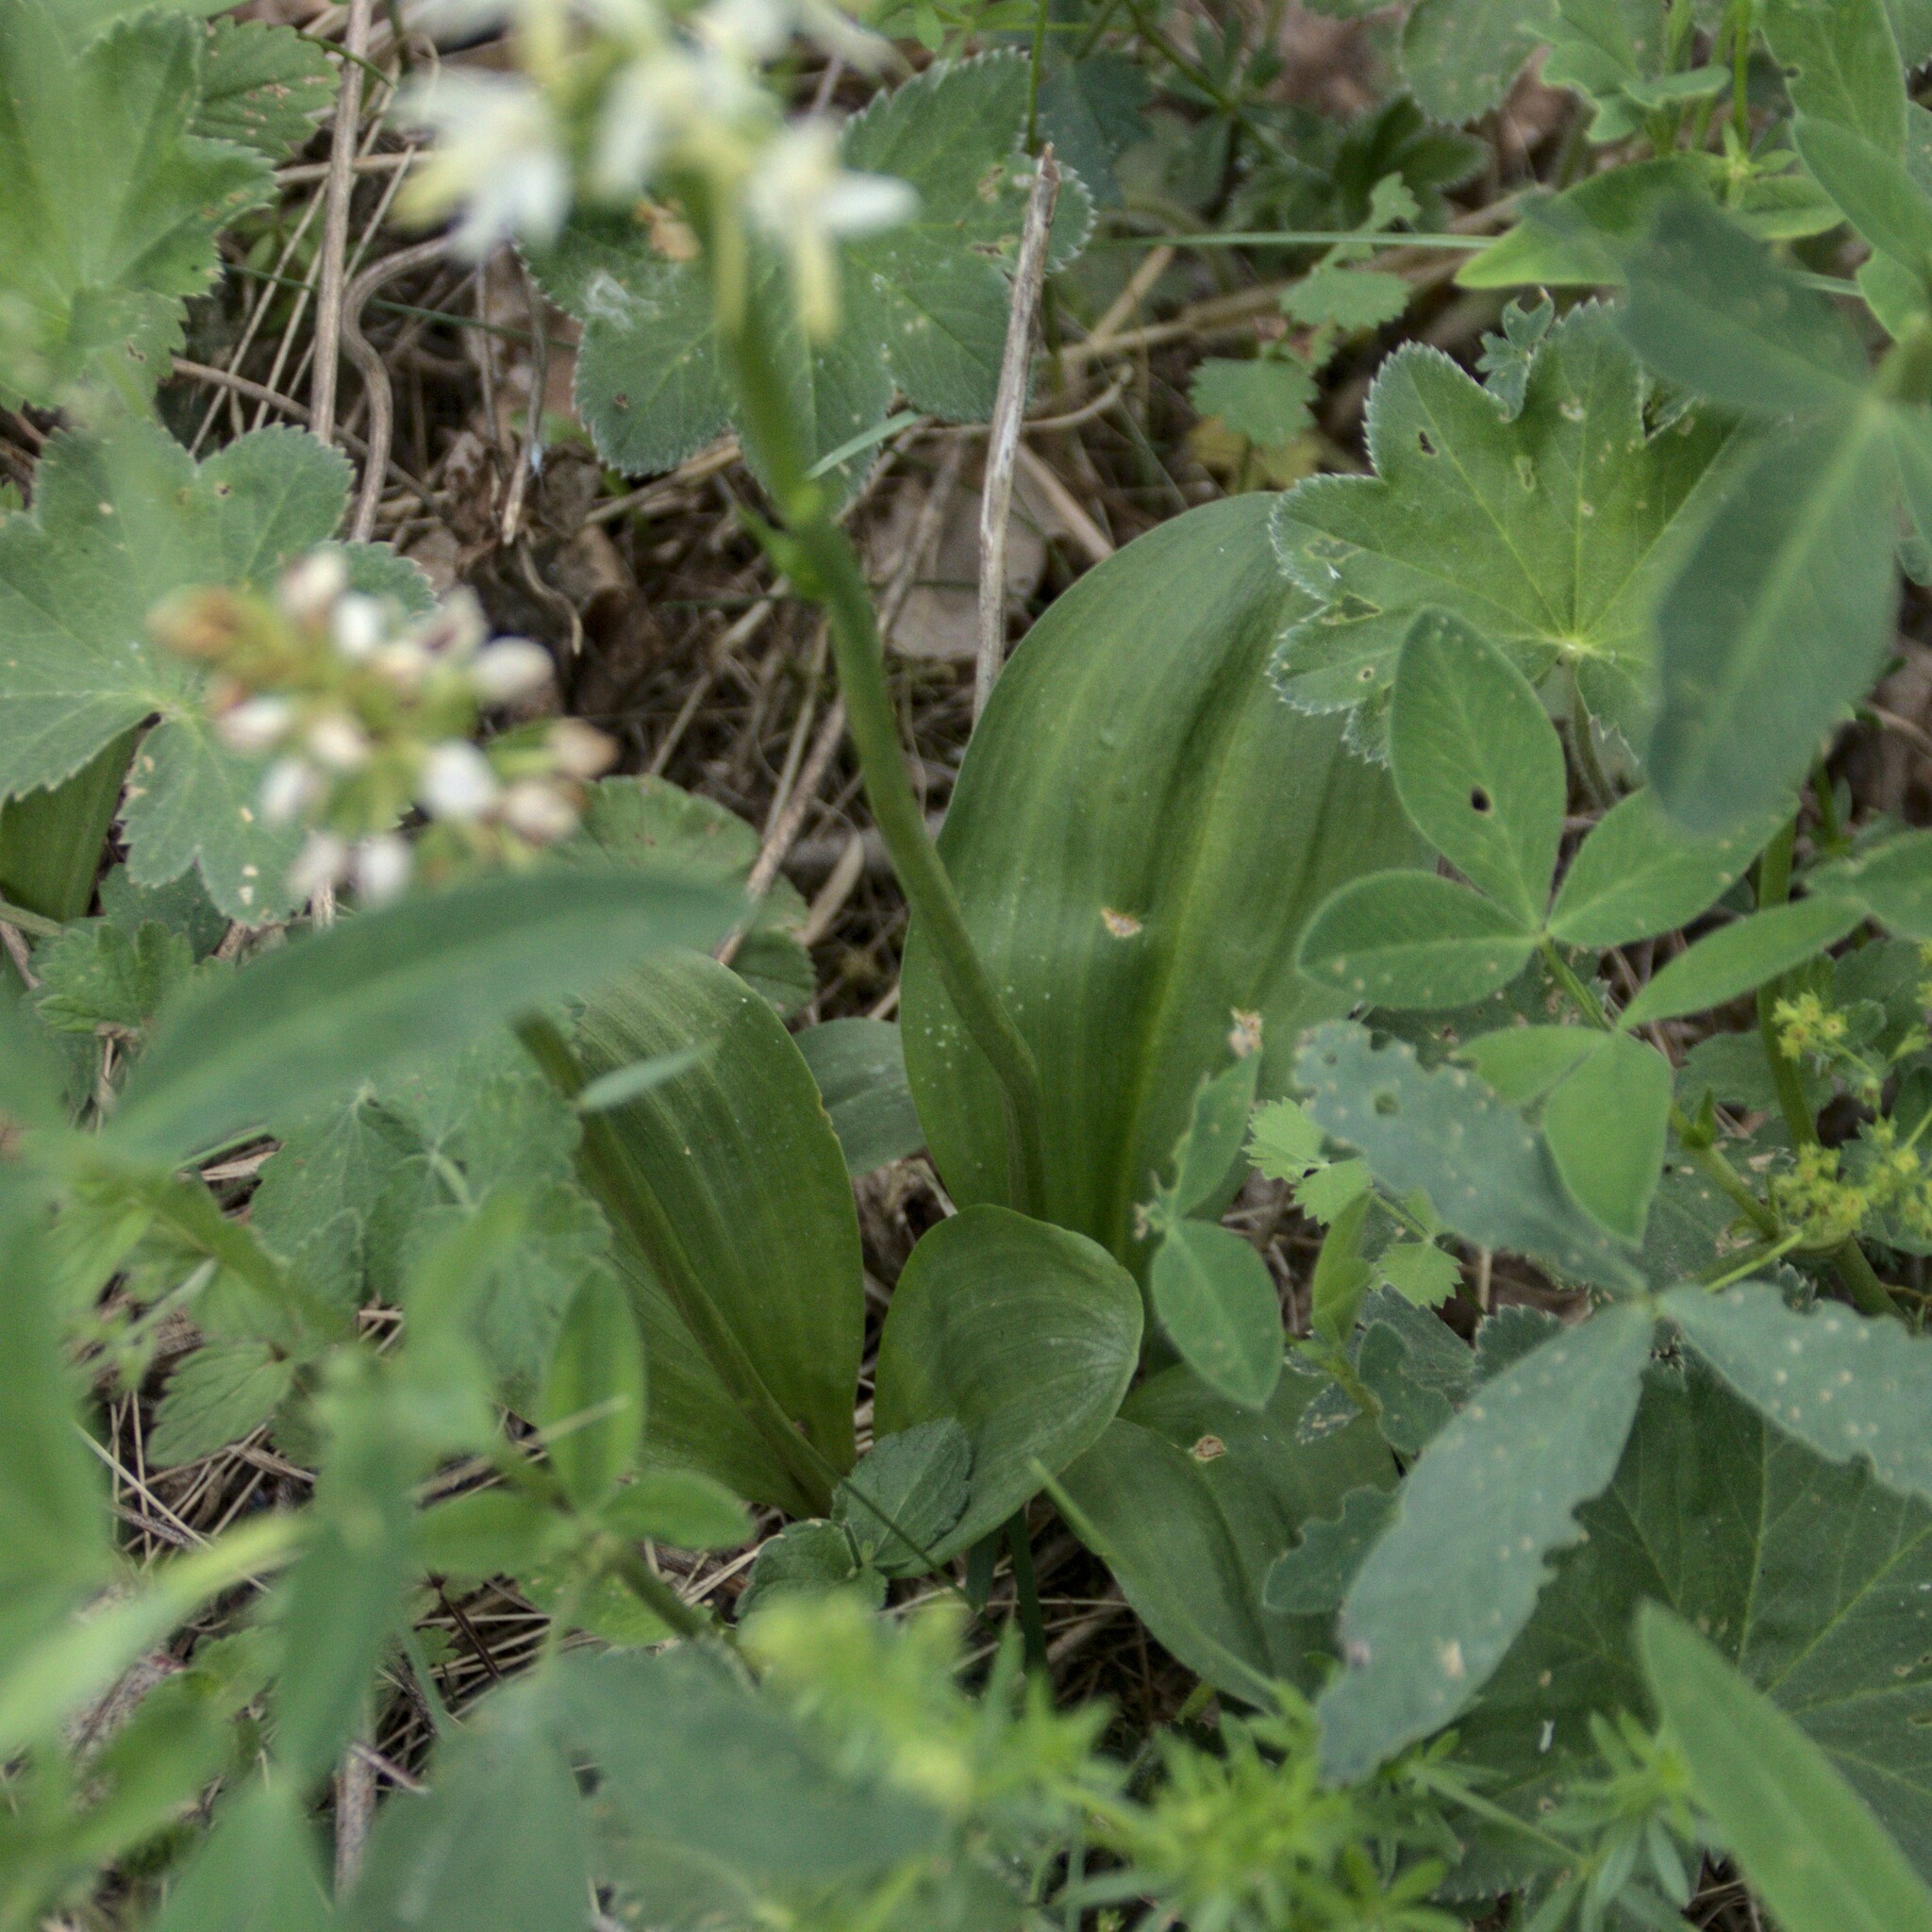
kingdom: Plantae
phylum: Tracheophyta
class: Liliopsida
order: Asparagales
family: Orchidaceae
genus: Platanthera
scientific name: Platanthera bifolia
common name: Lesser butterfly-orchid
